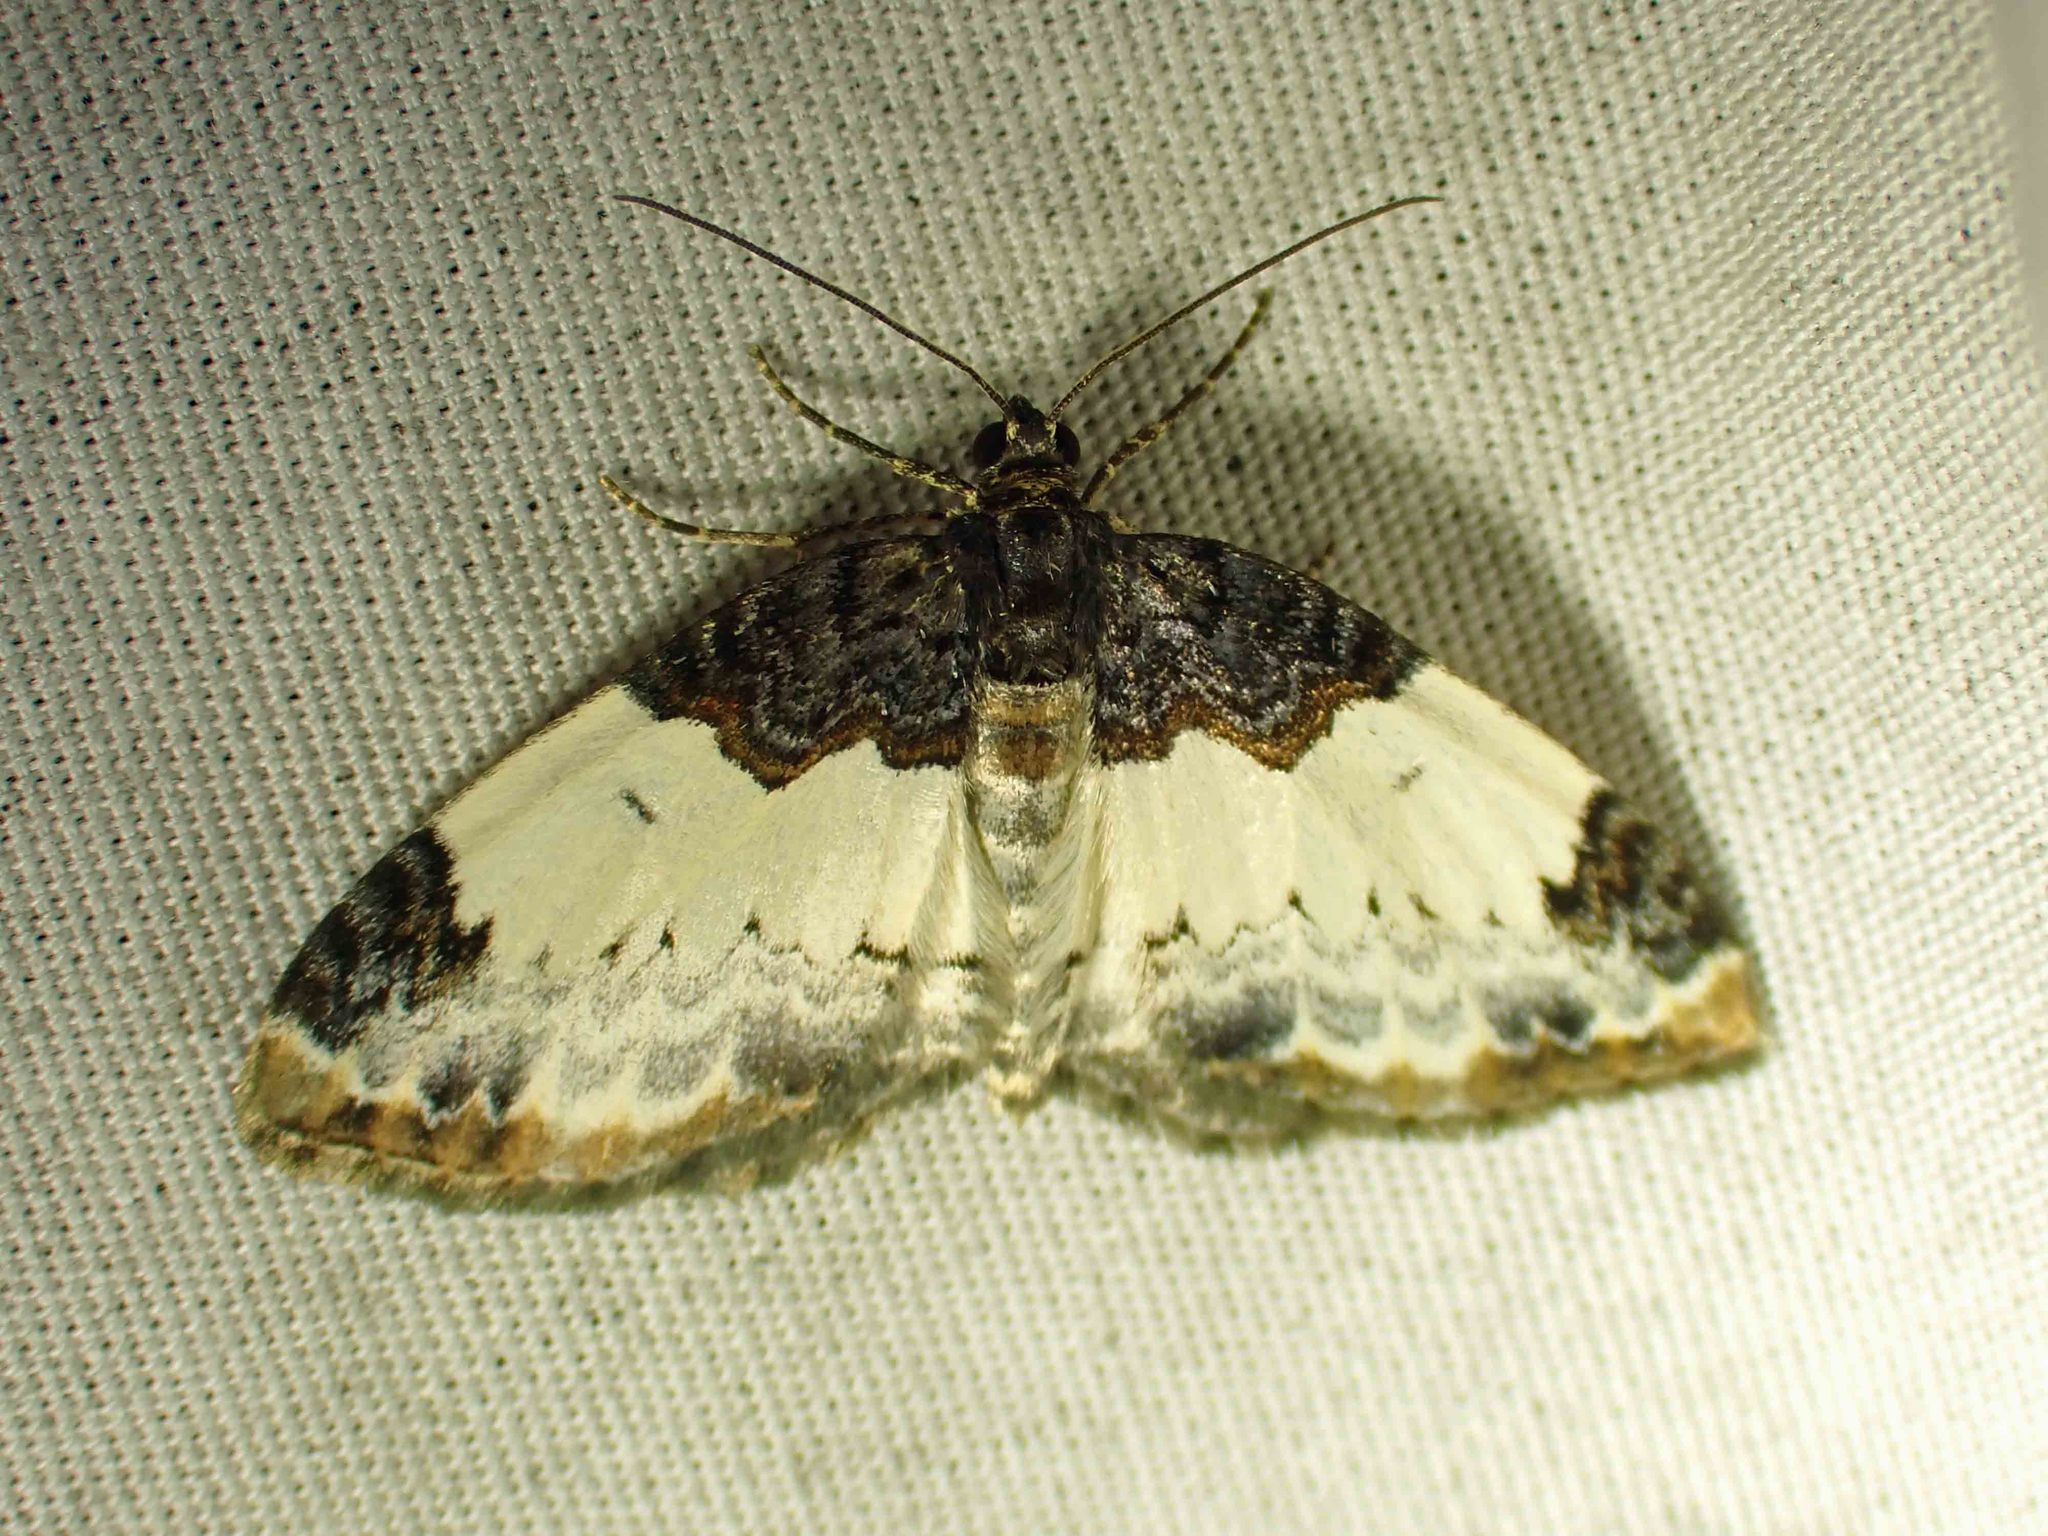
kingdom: Animalia
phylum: Arthropoda
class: Insecta
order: Lepidoptera
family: Geometridae
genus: Mesoleuca
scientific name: Mesoleuca ruficillata
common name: White-ribboned carpet moth
